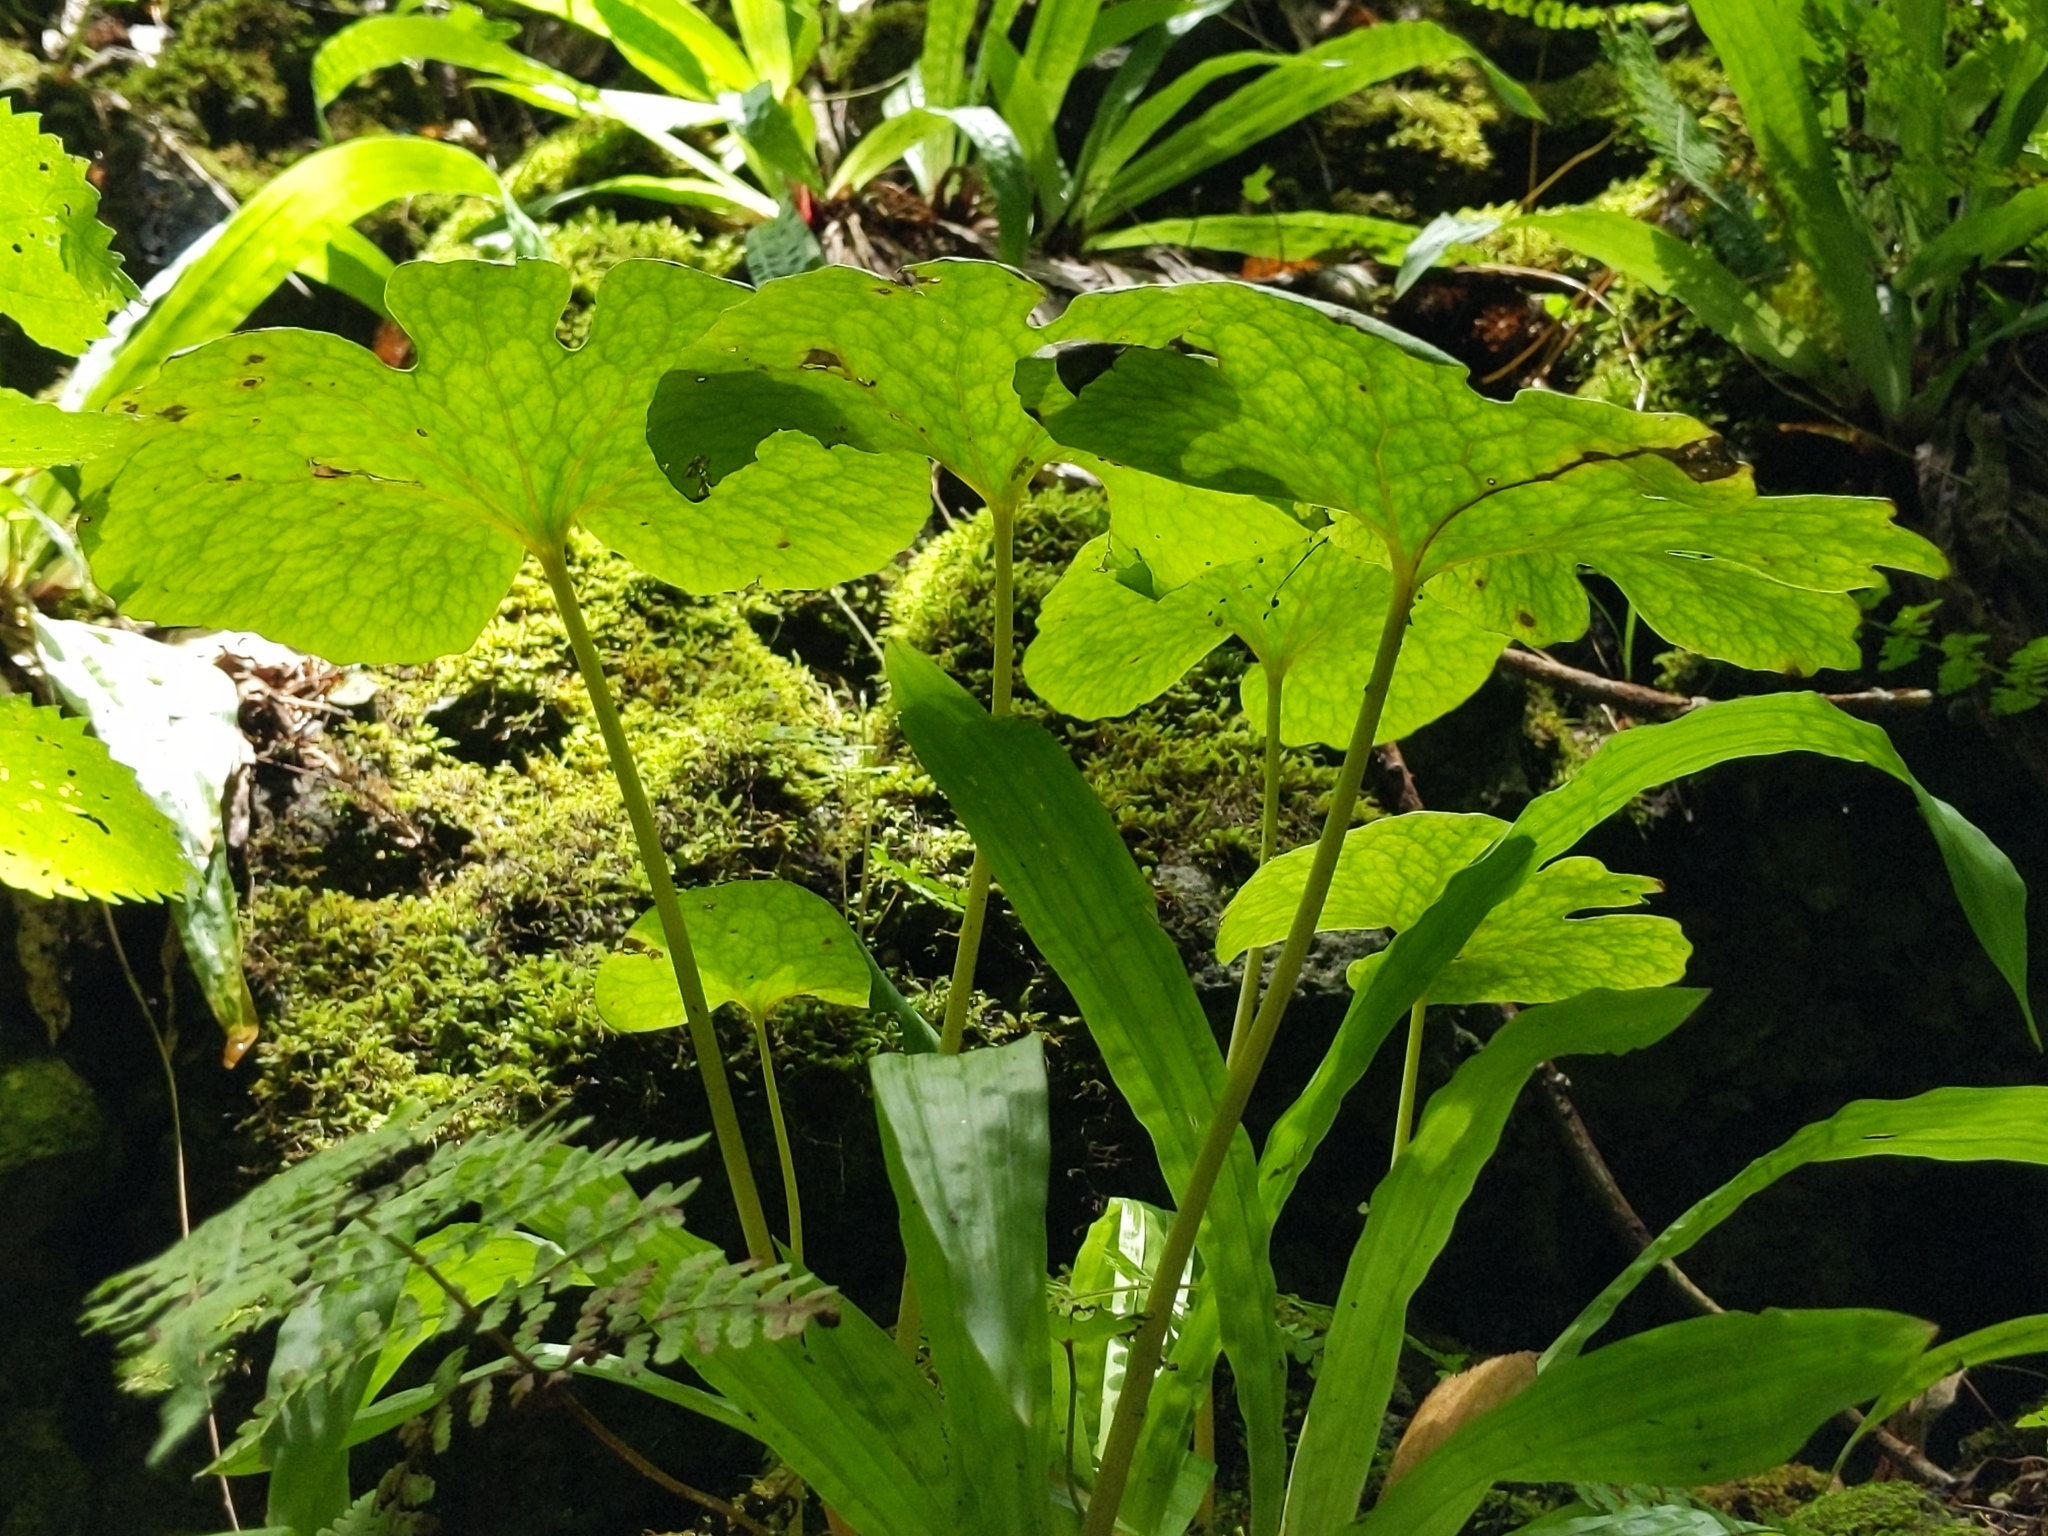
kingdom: Plantae
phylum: Tracheophyta
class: Magnoliopsida
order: Ranunculales
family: Papaveraceae
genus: Sanguinaria
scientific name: Sanguinaria canadensis
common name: Bloodroot
